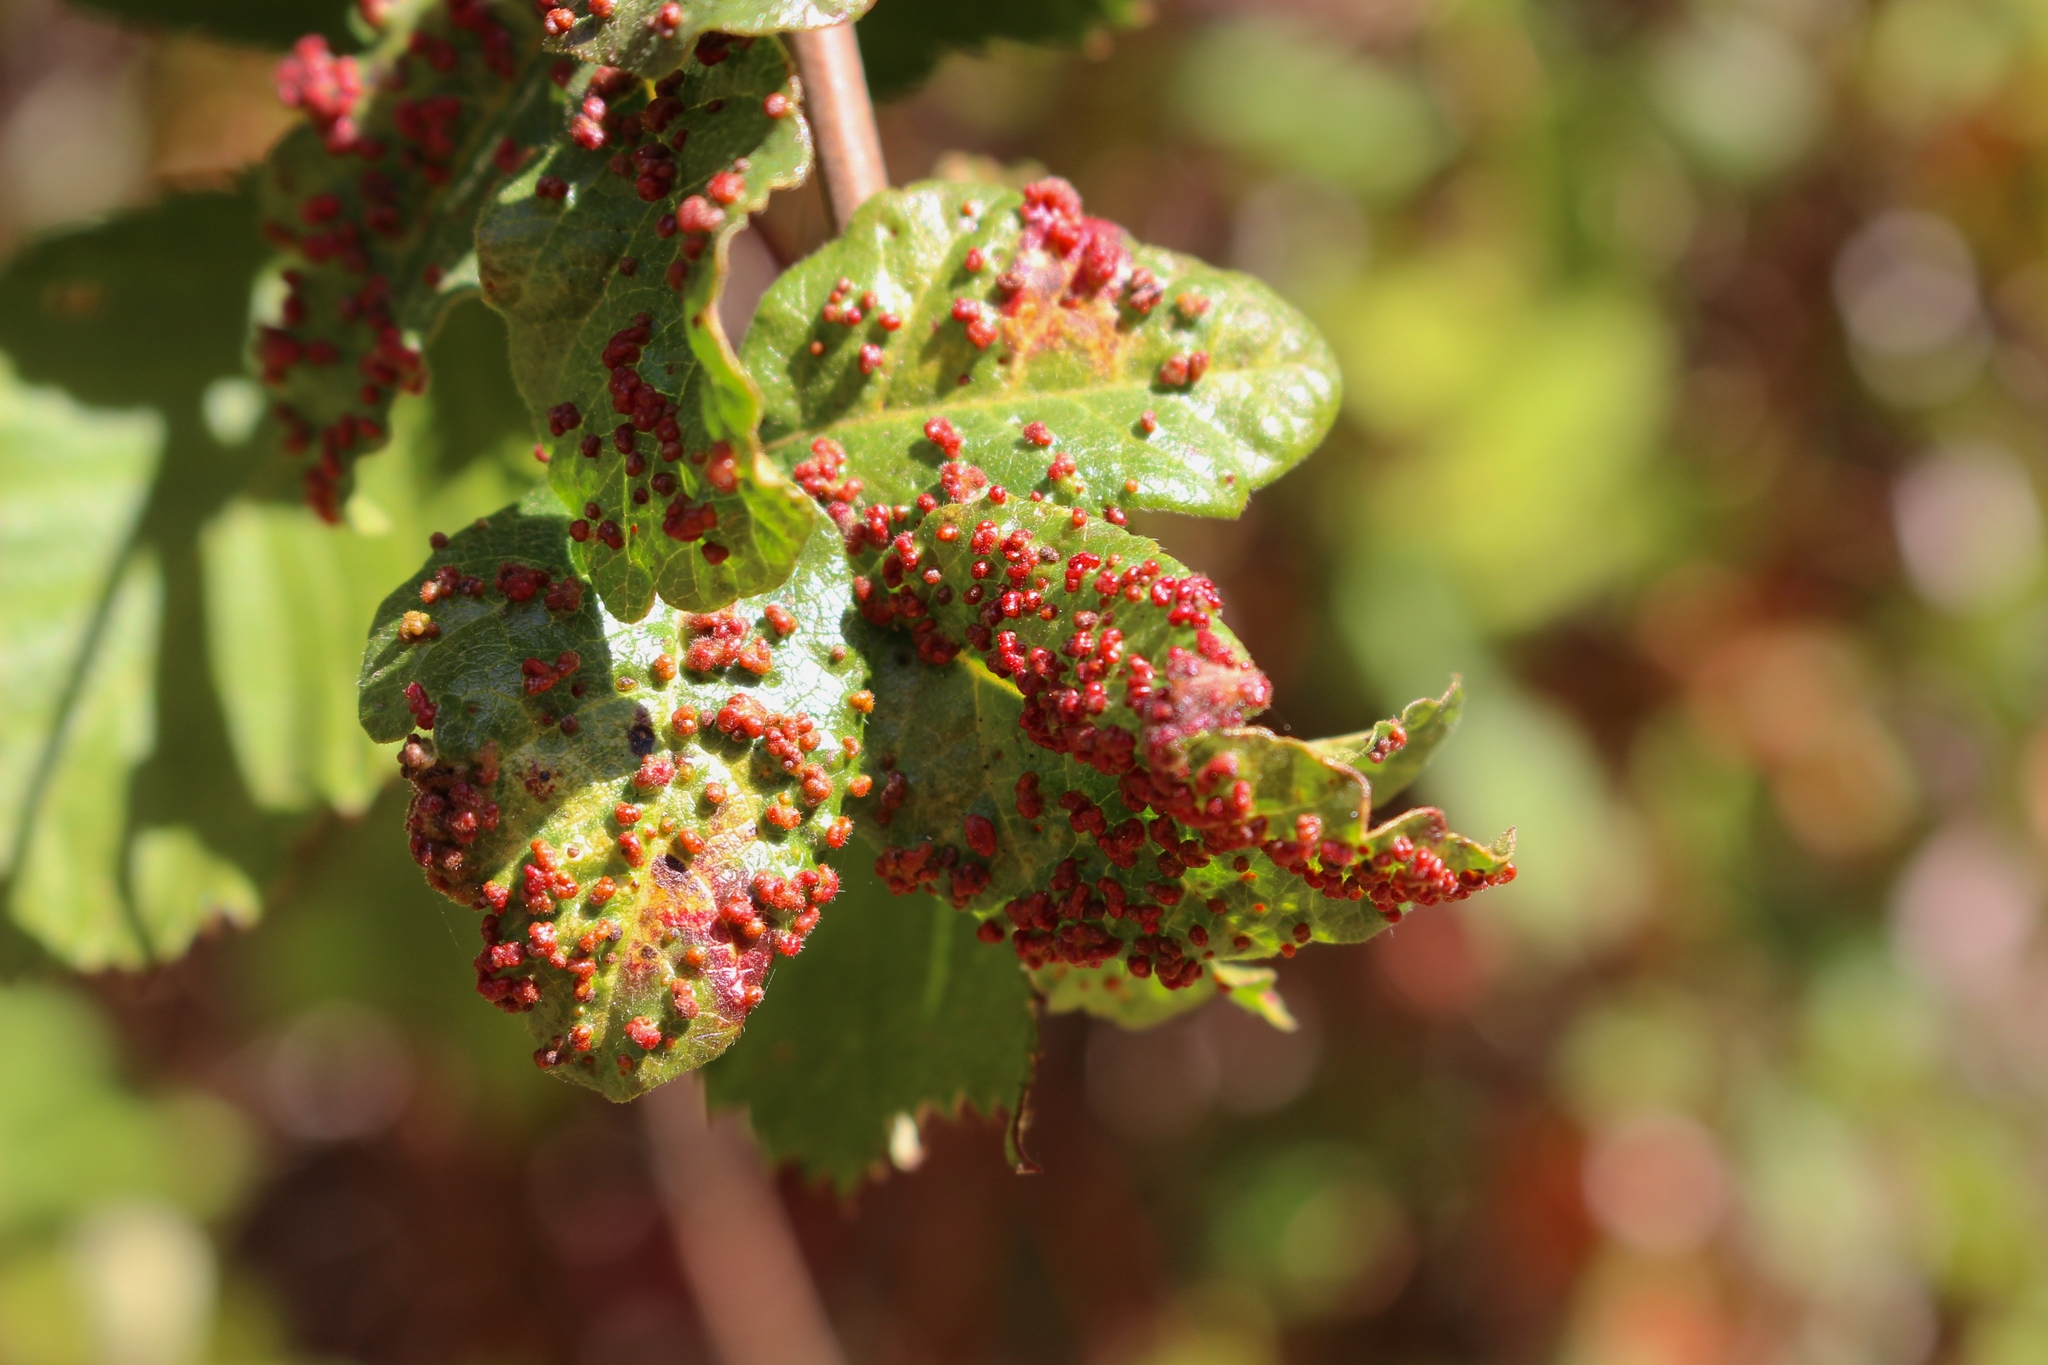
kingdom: Animalia
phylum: Arthropoda
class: Arachnida
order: Trombidiformes
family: Eriophyidae
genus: Aculops
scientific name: Aculops
